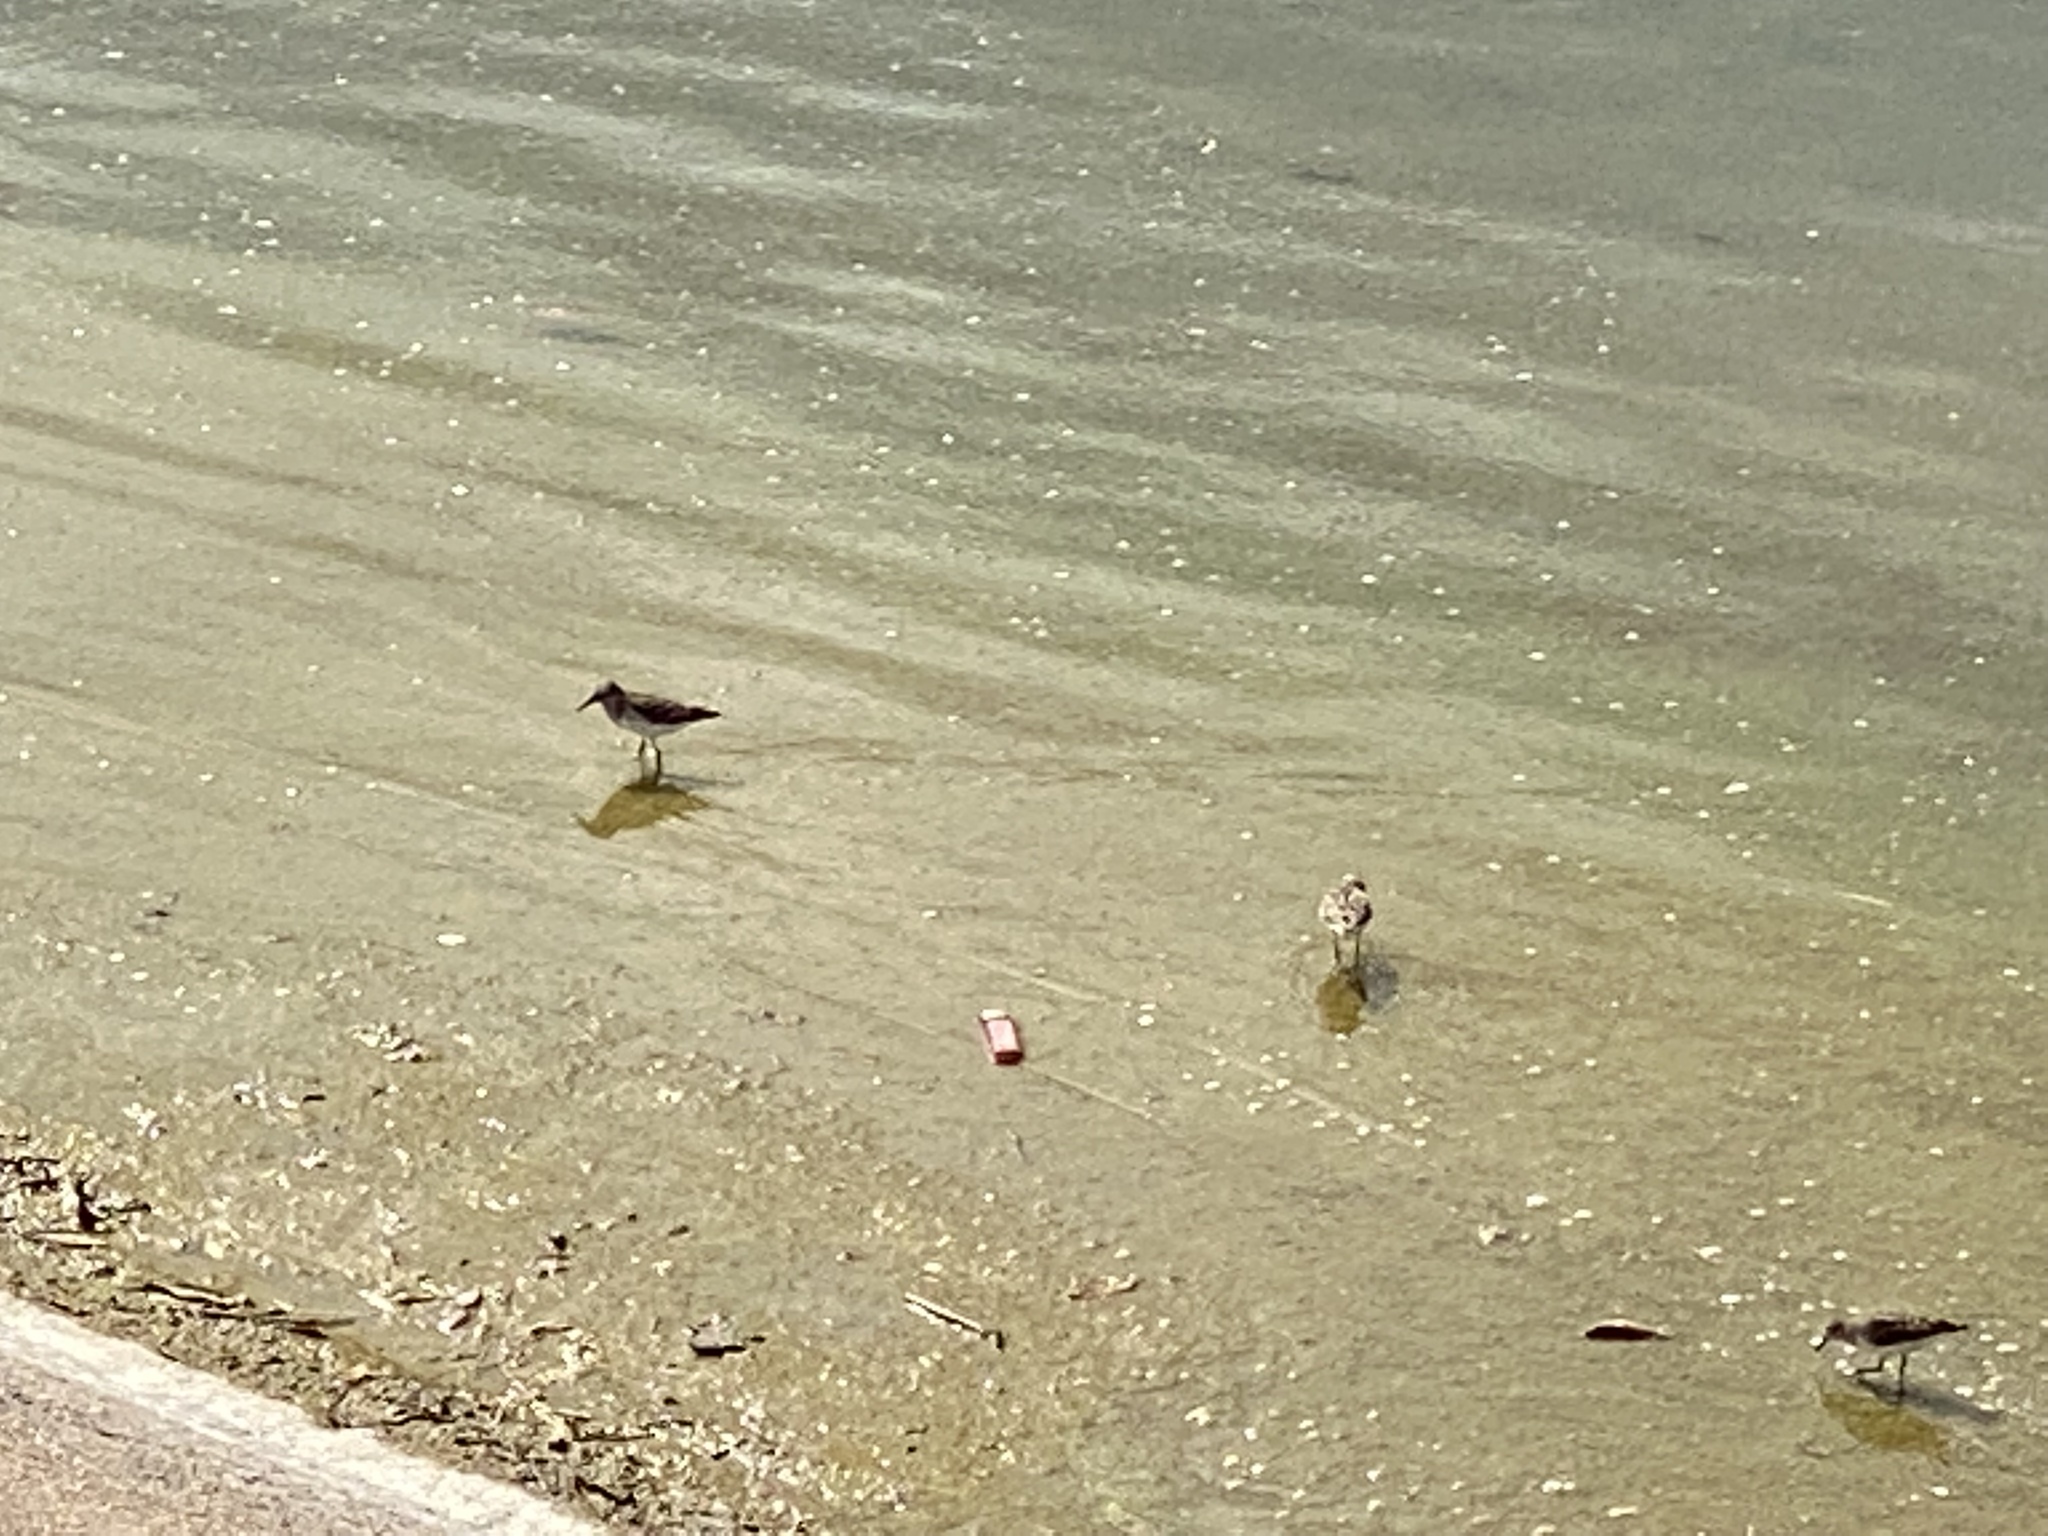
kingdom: Animalia
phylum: Chordata
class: Aves
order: Charadriiformes
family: Scolopacidae
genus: Calidris
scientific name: Calidris minutilla
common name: Least sandpiper
